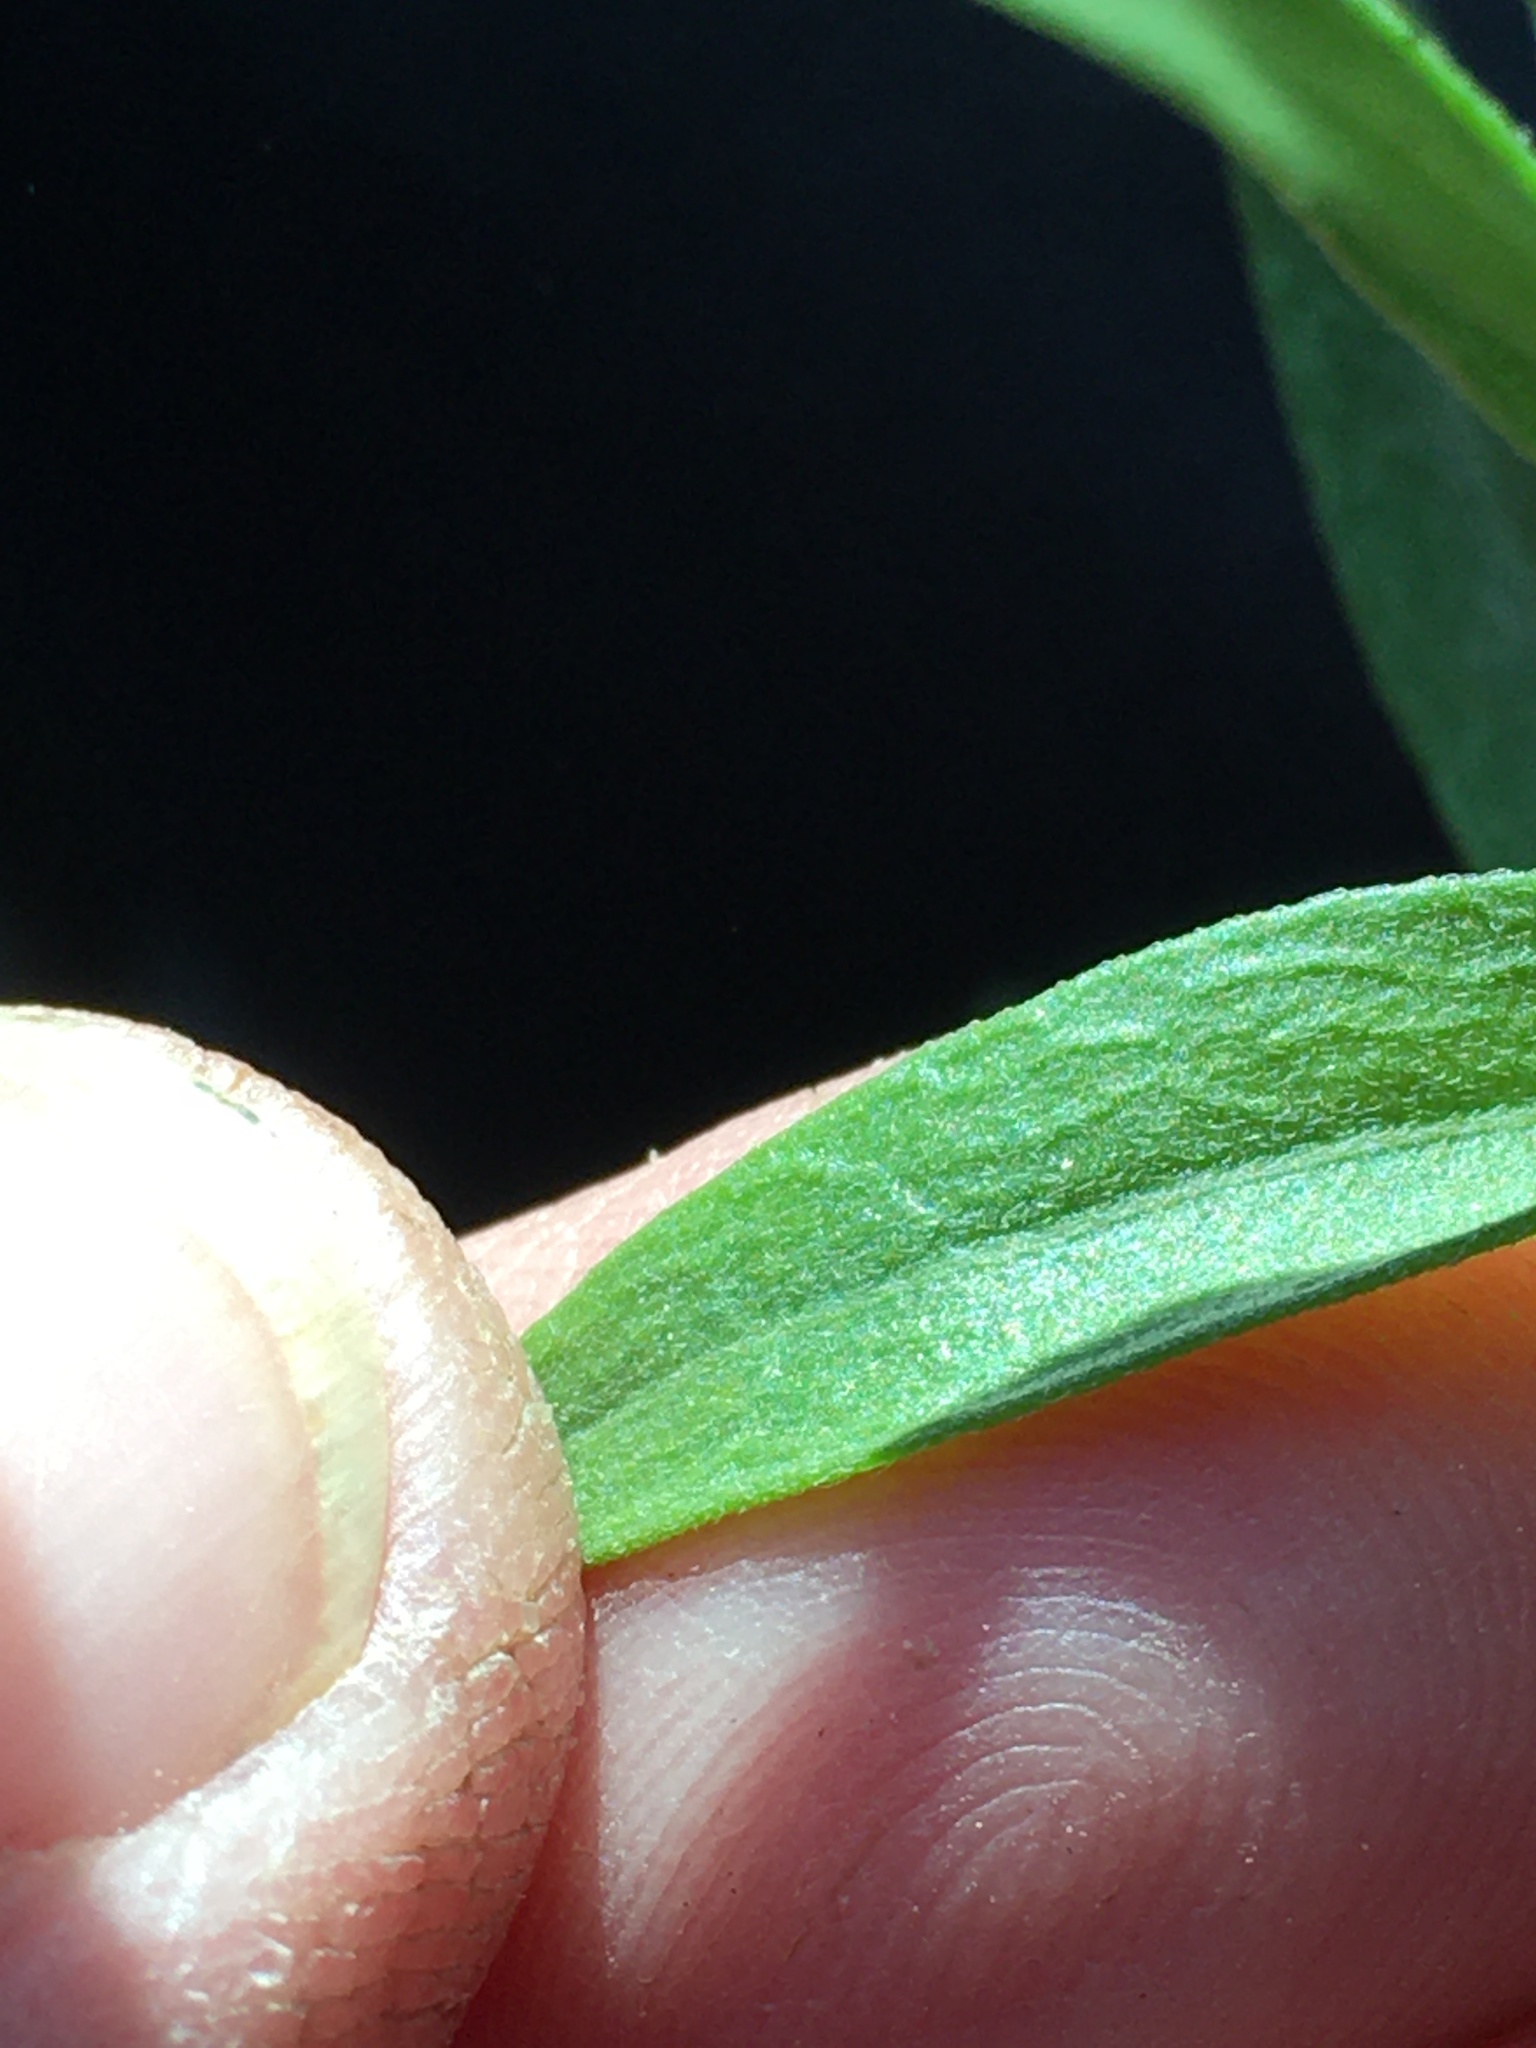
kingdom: Plantae
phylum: Tracheophyta
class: Magnoliopsida
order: Asterales
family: Asteraceae
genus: Erigeron
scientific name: Erigeron strigosus
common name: Common eastern fleabane
